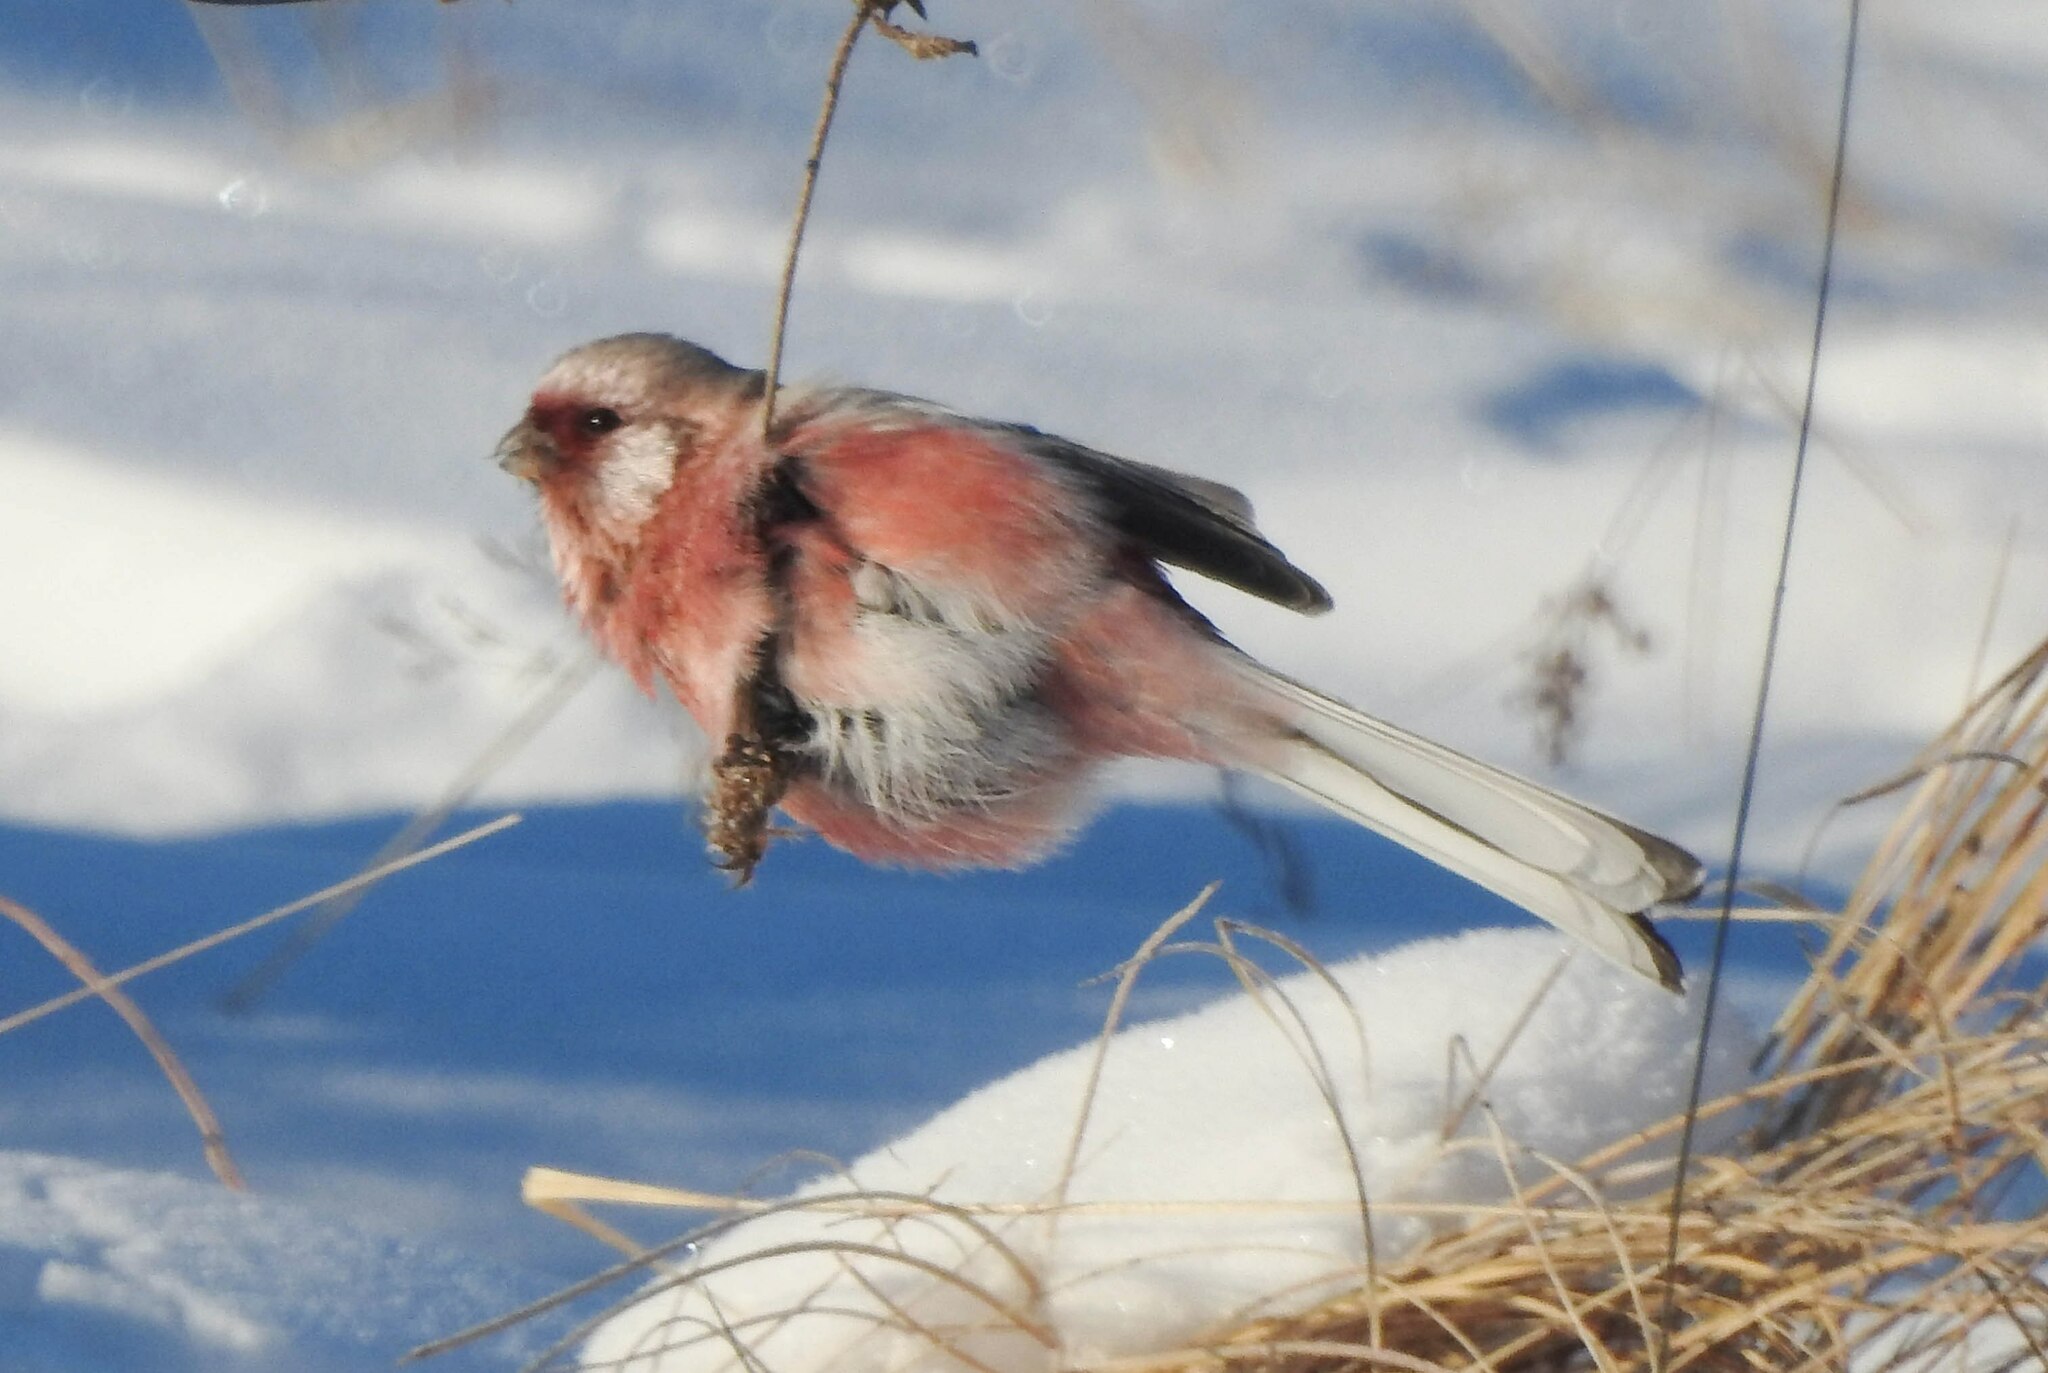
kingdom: Animalia
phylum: Chordata
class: Aves
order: Passeriformes
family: Fringillidae
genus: Carpodacus
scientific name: Carpodacus sibiricus
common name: Long-tailed rosefinch
